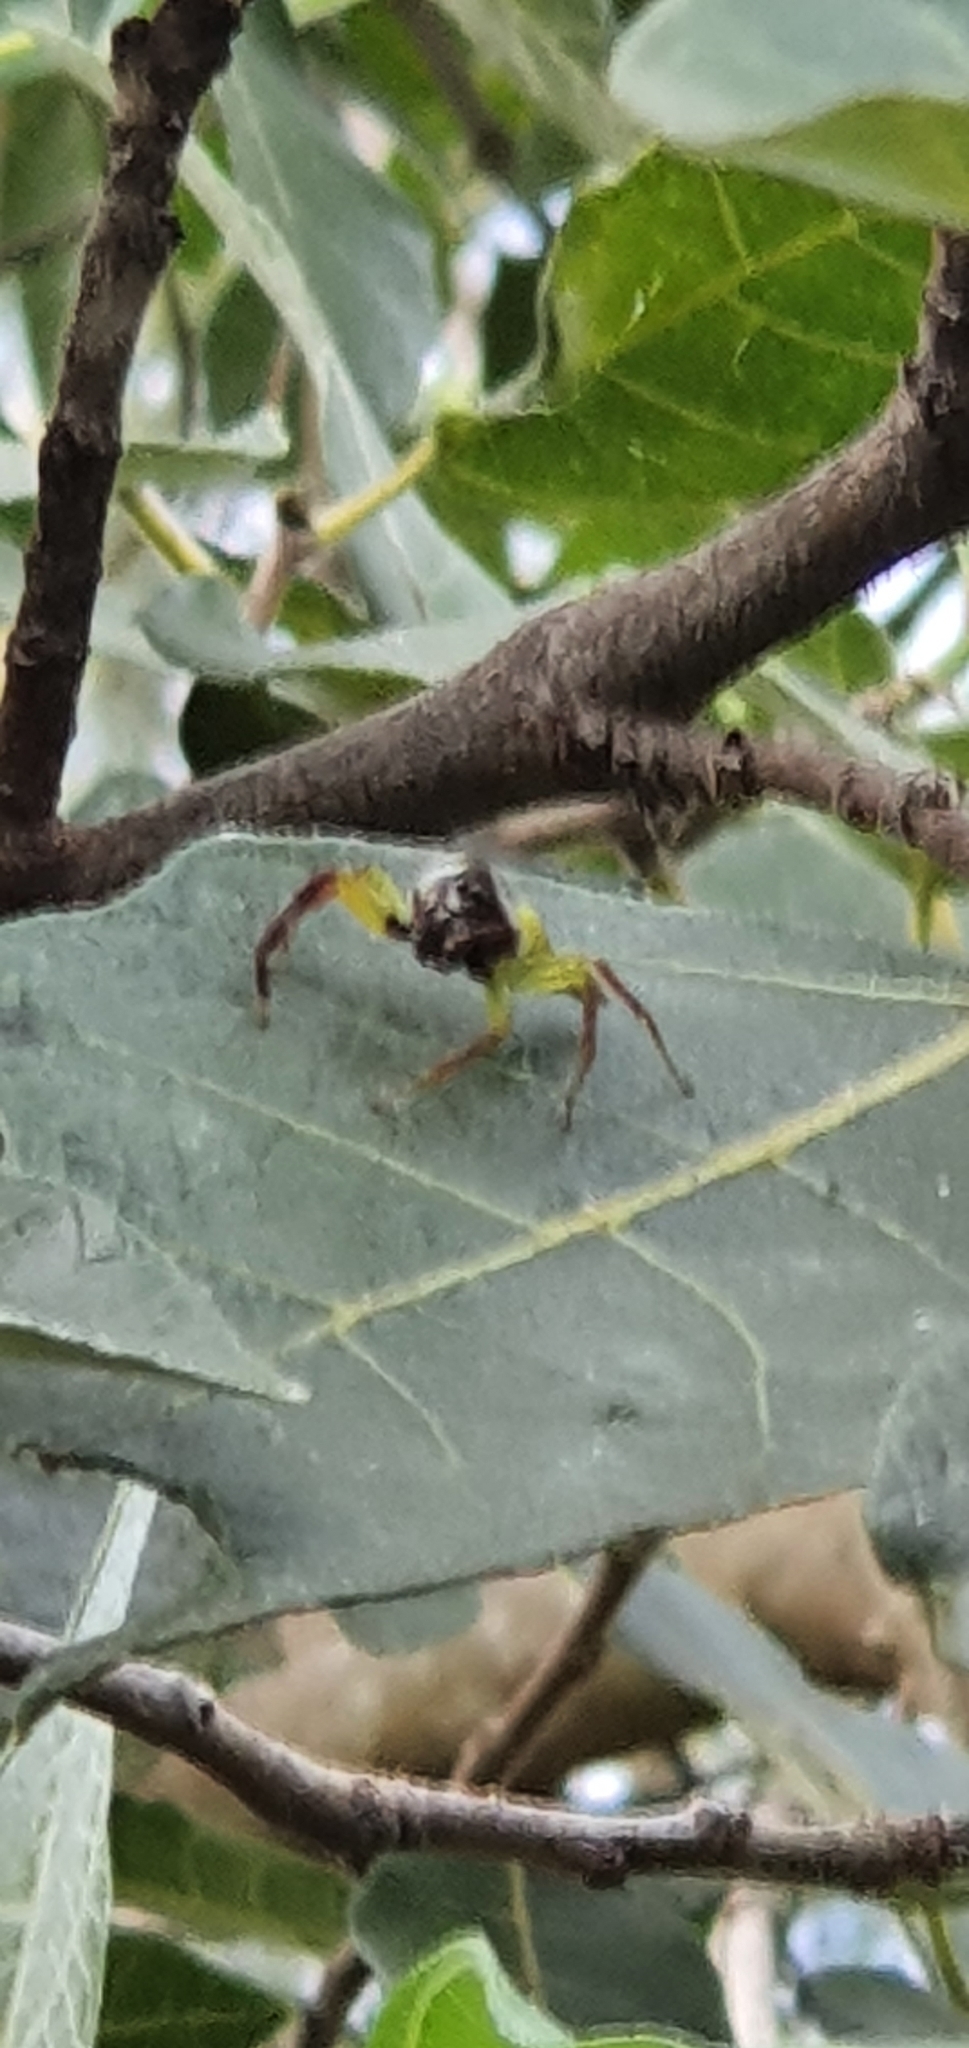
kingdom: Animalia
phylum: Arthropoda
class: Arachnida
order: Araneae
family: Salticidae
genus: Mopsus
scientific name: Mopsus mormon
